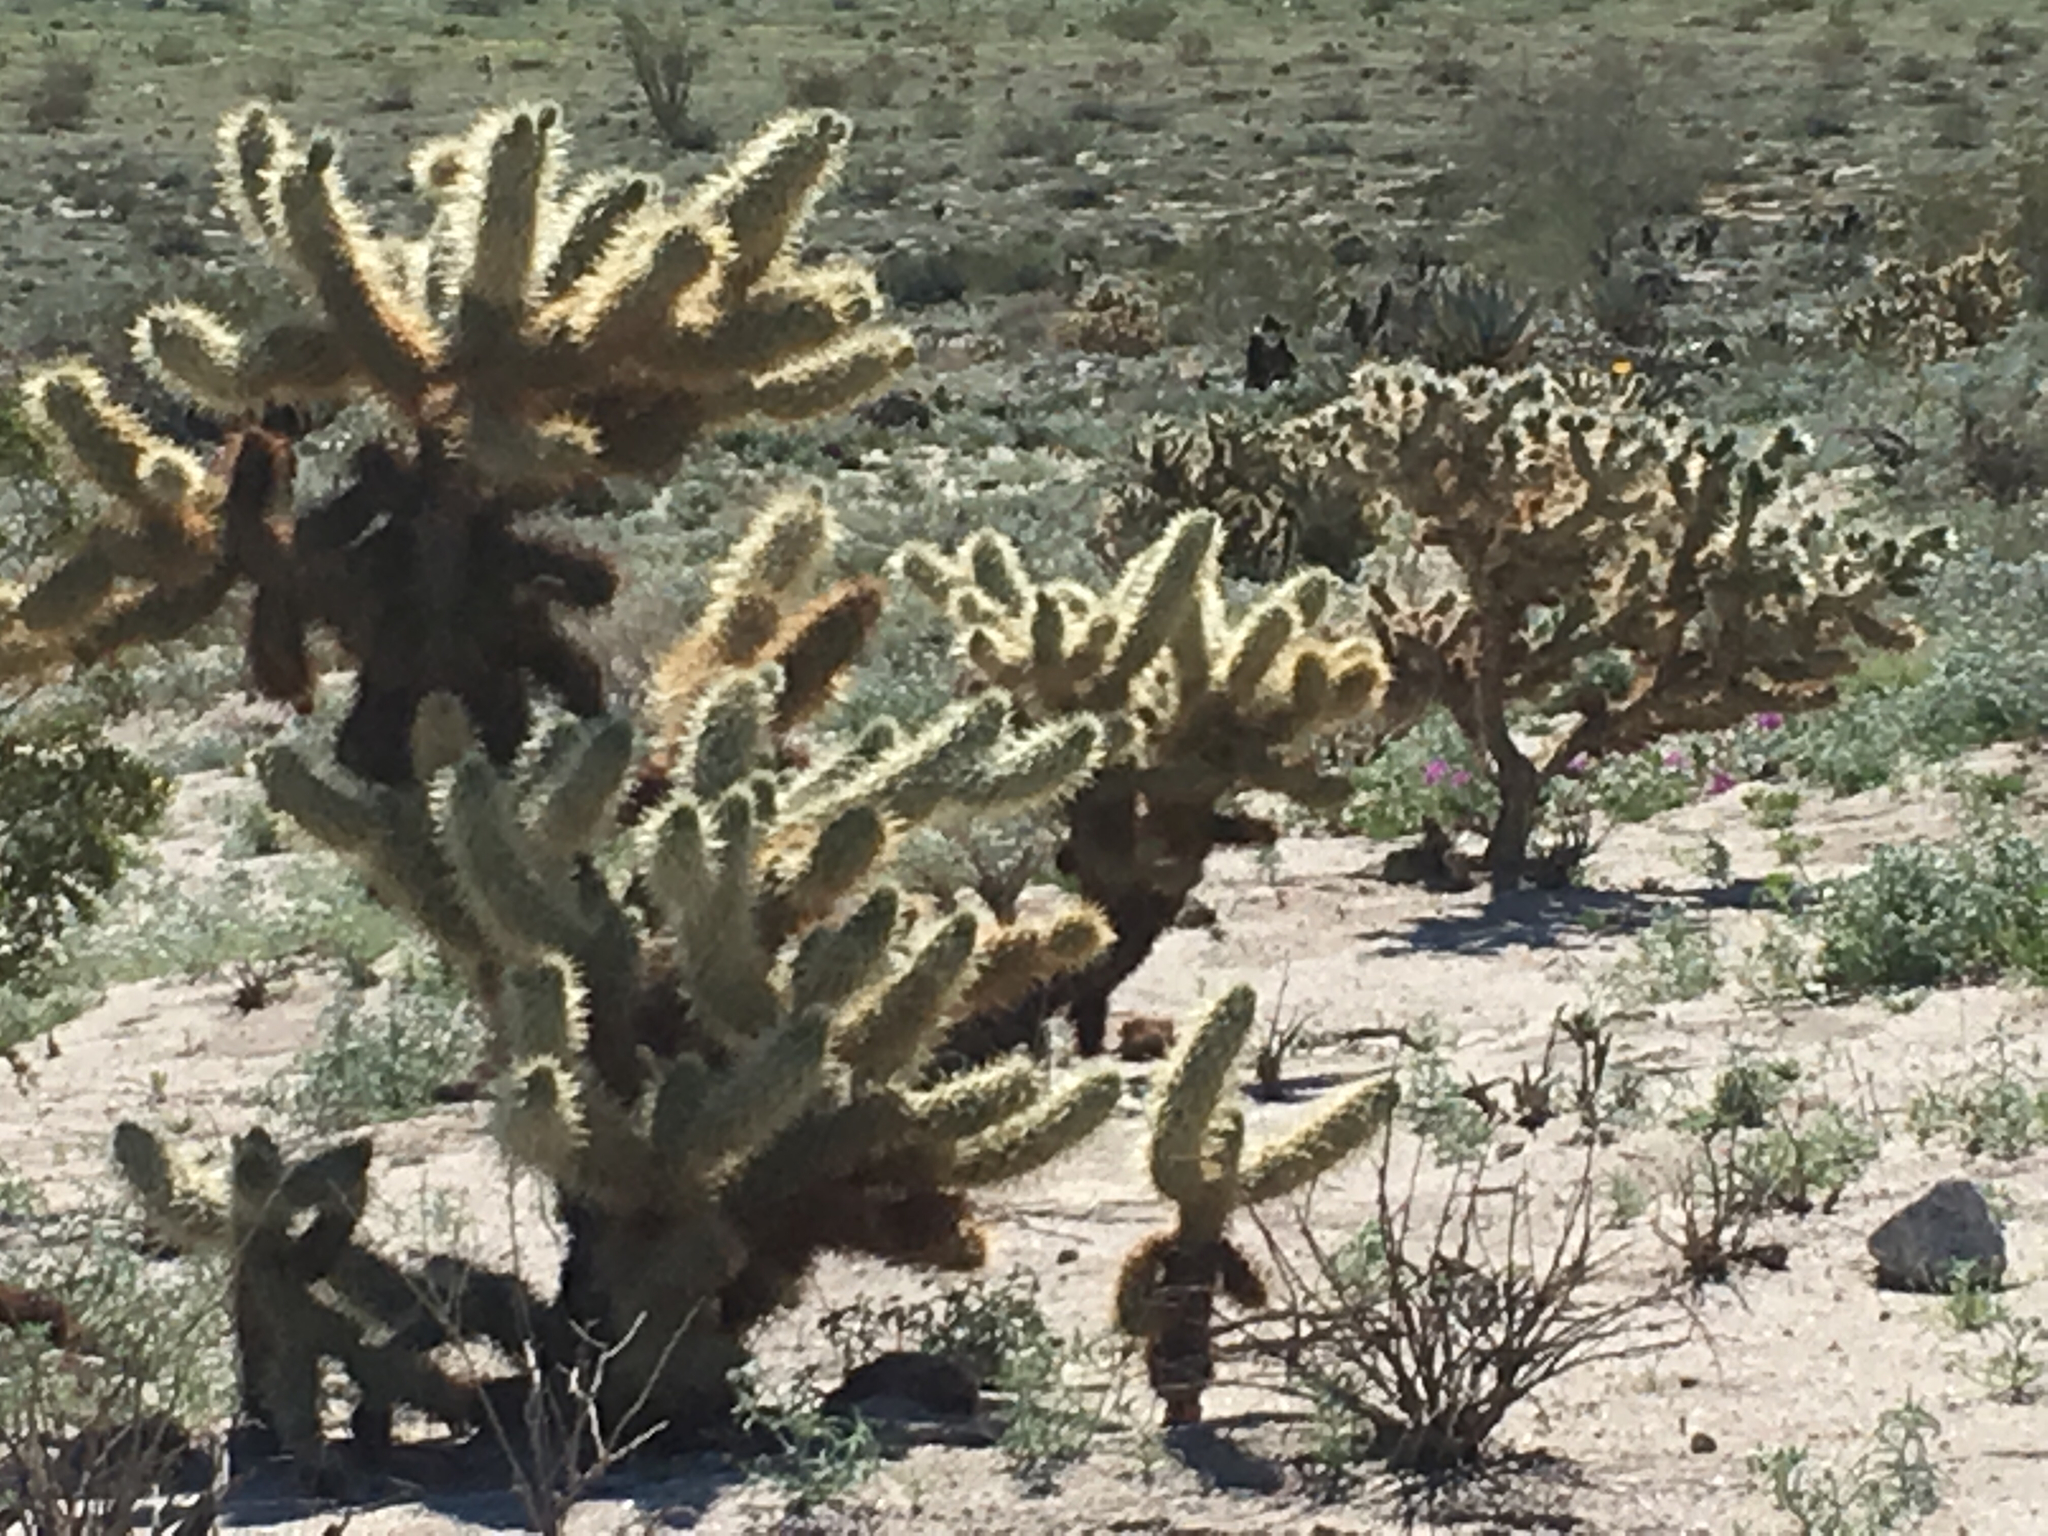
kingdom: Plantae
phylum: Tracheophyta
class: Magnoliopsida
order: Caryophyllales
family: Cactaceae
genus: Cylindropuntia
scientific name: Cylindropuntia fosbergii
